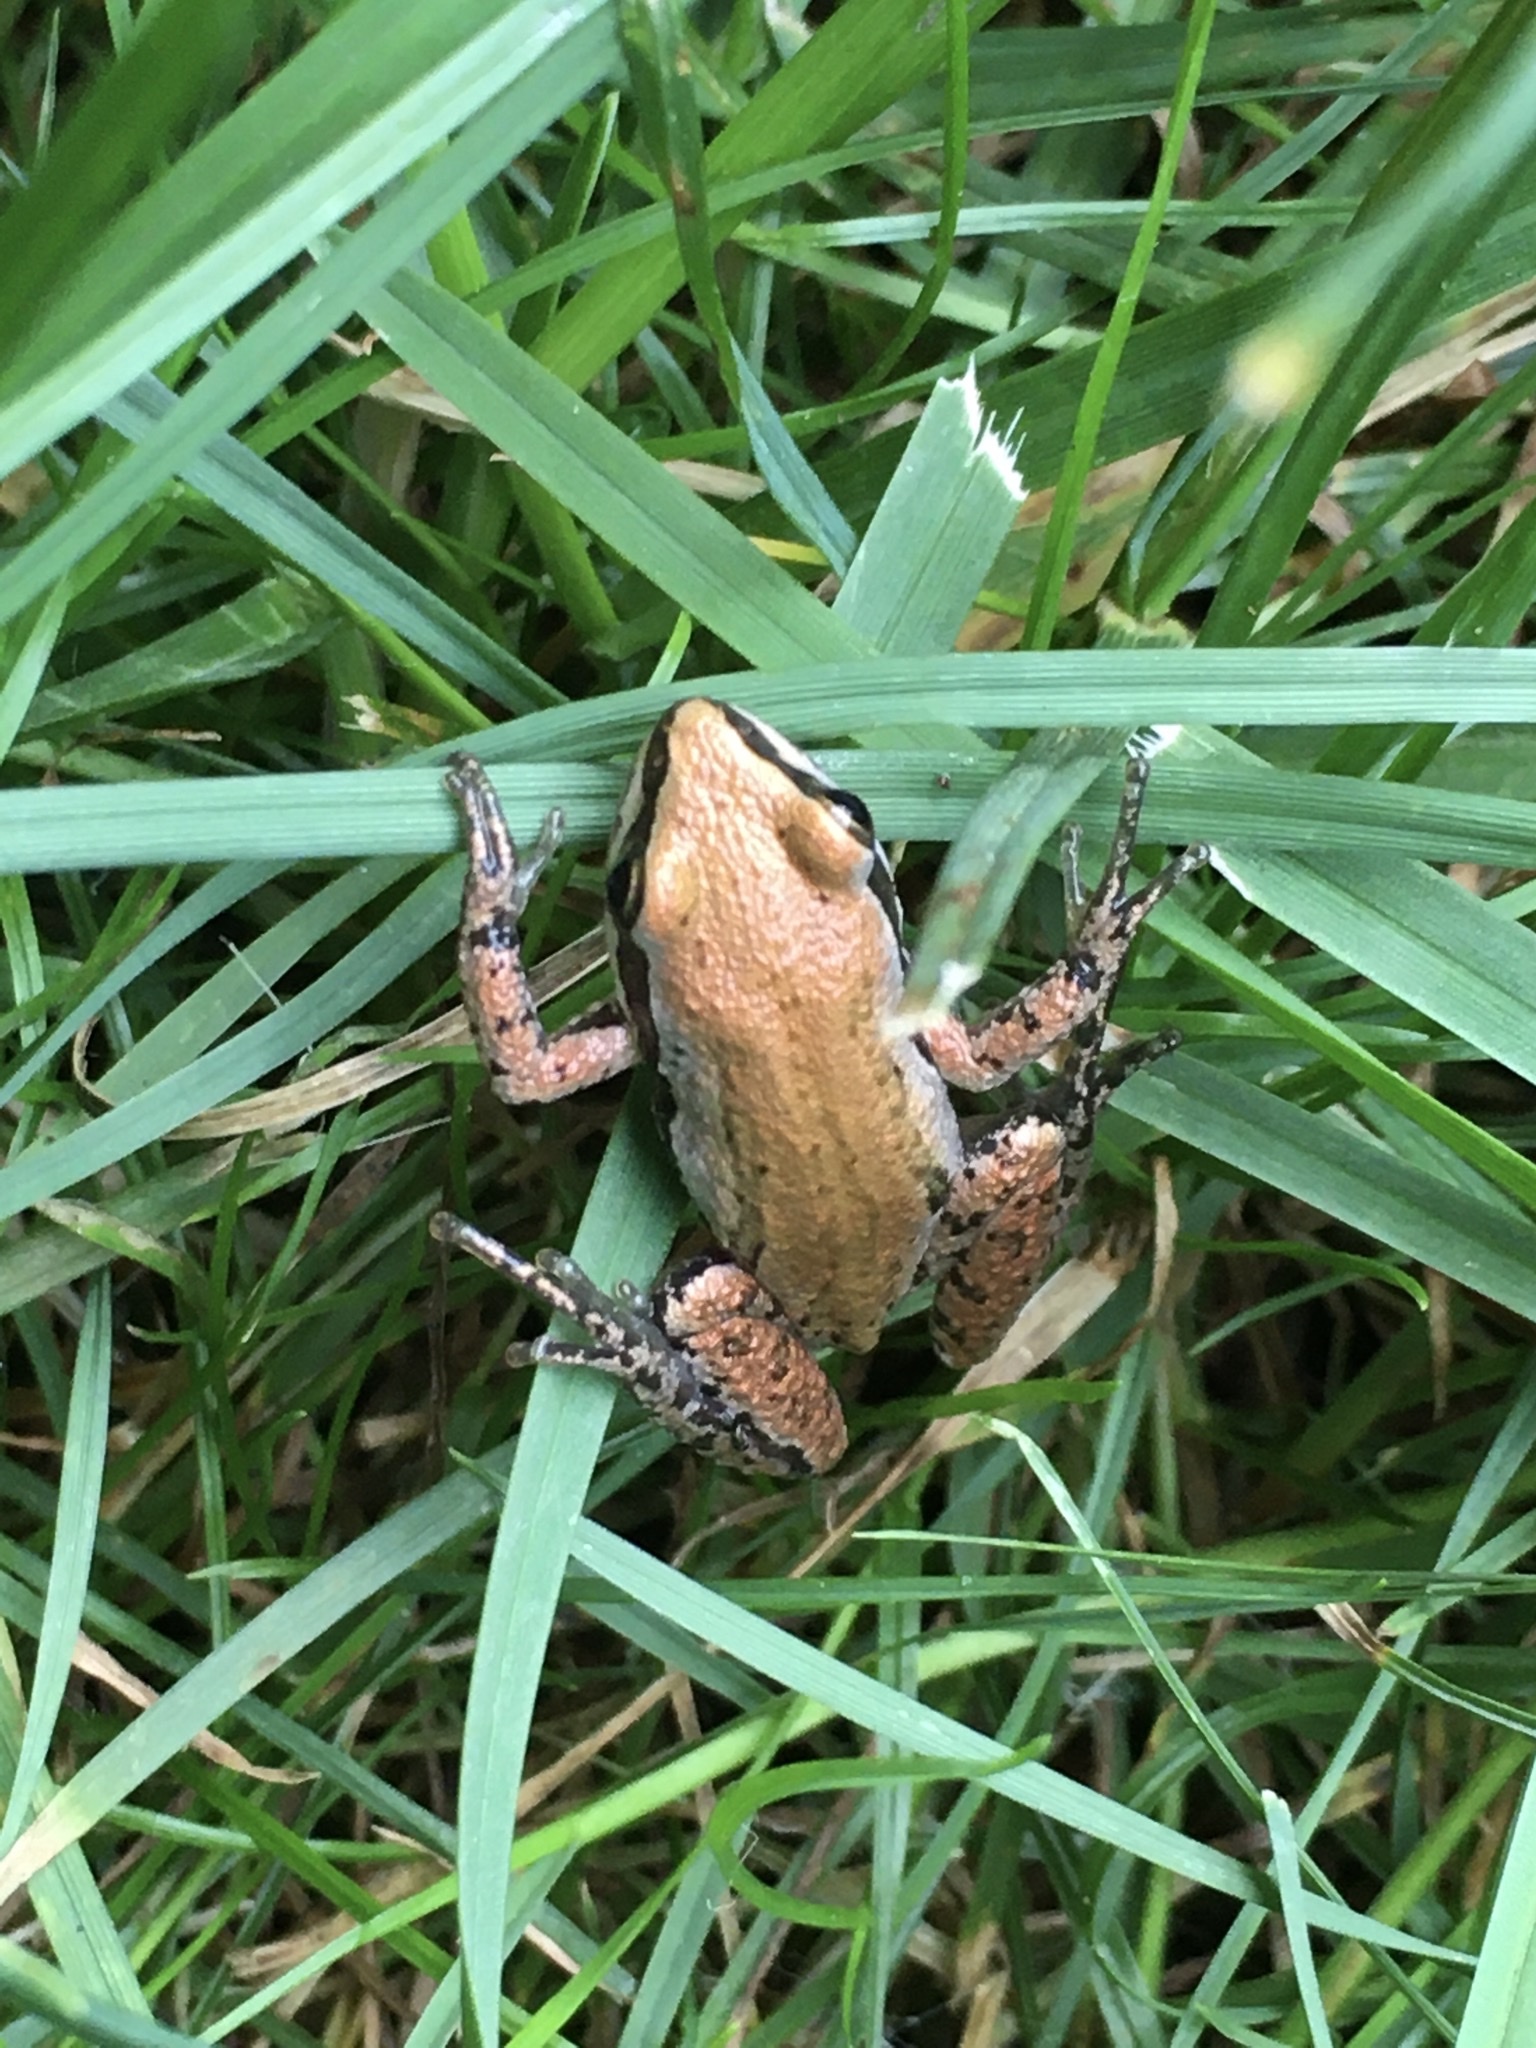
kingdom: Animalia
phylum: Chordata
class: Amphibia
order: Anura
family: Hylidae
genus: Pseudacris
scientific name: Pseudacris maculata
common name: Boreal chorus frog
